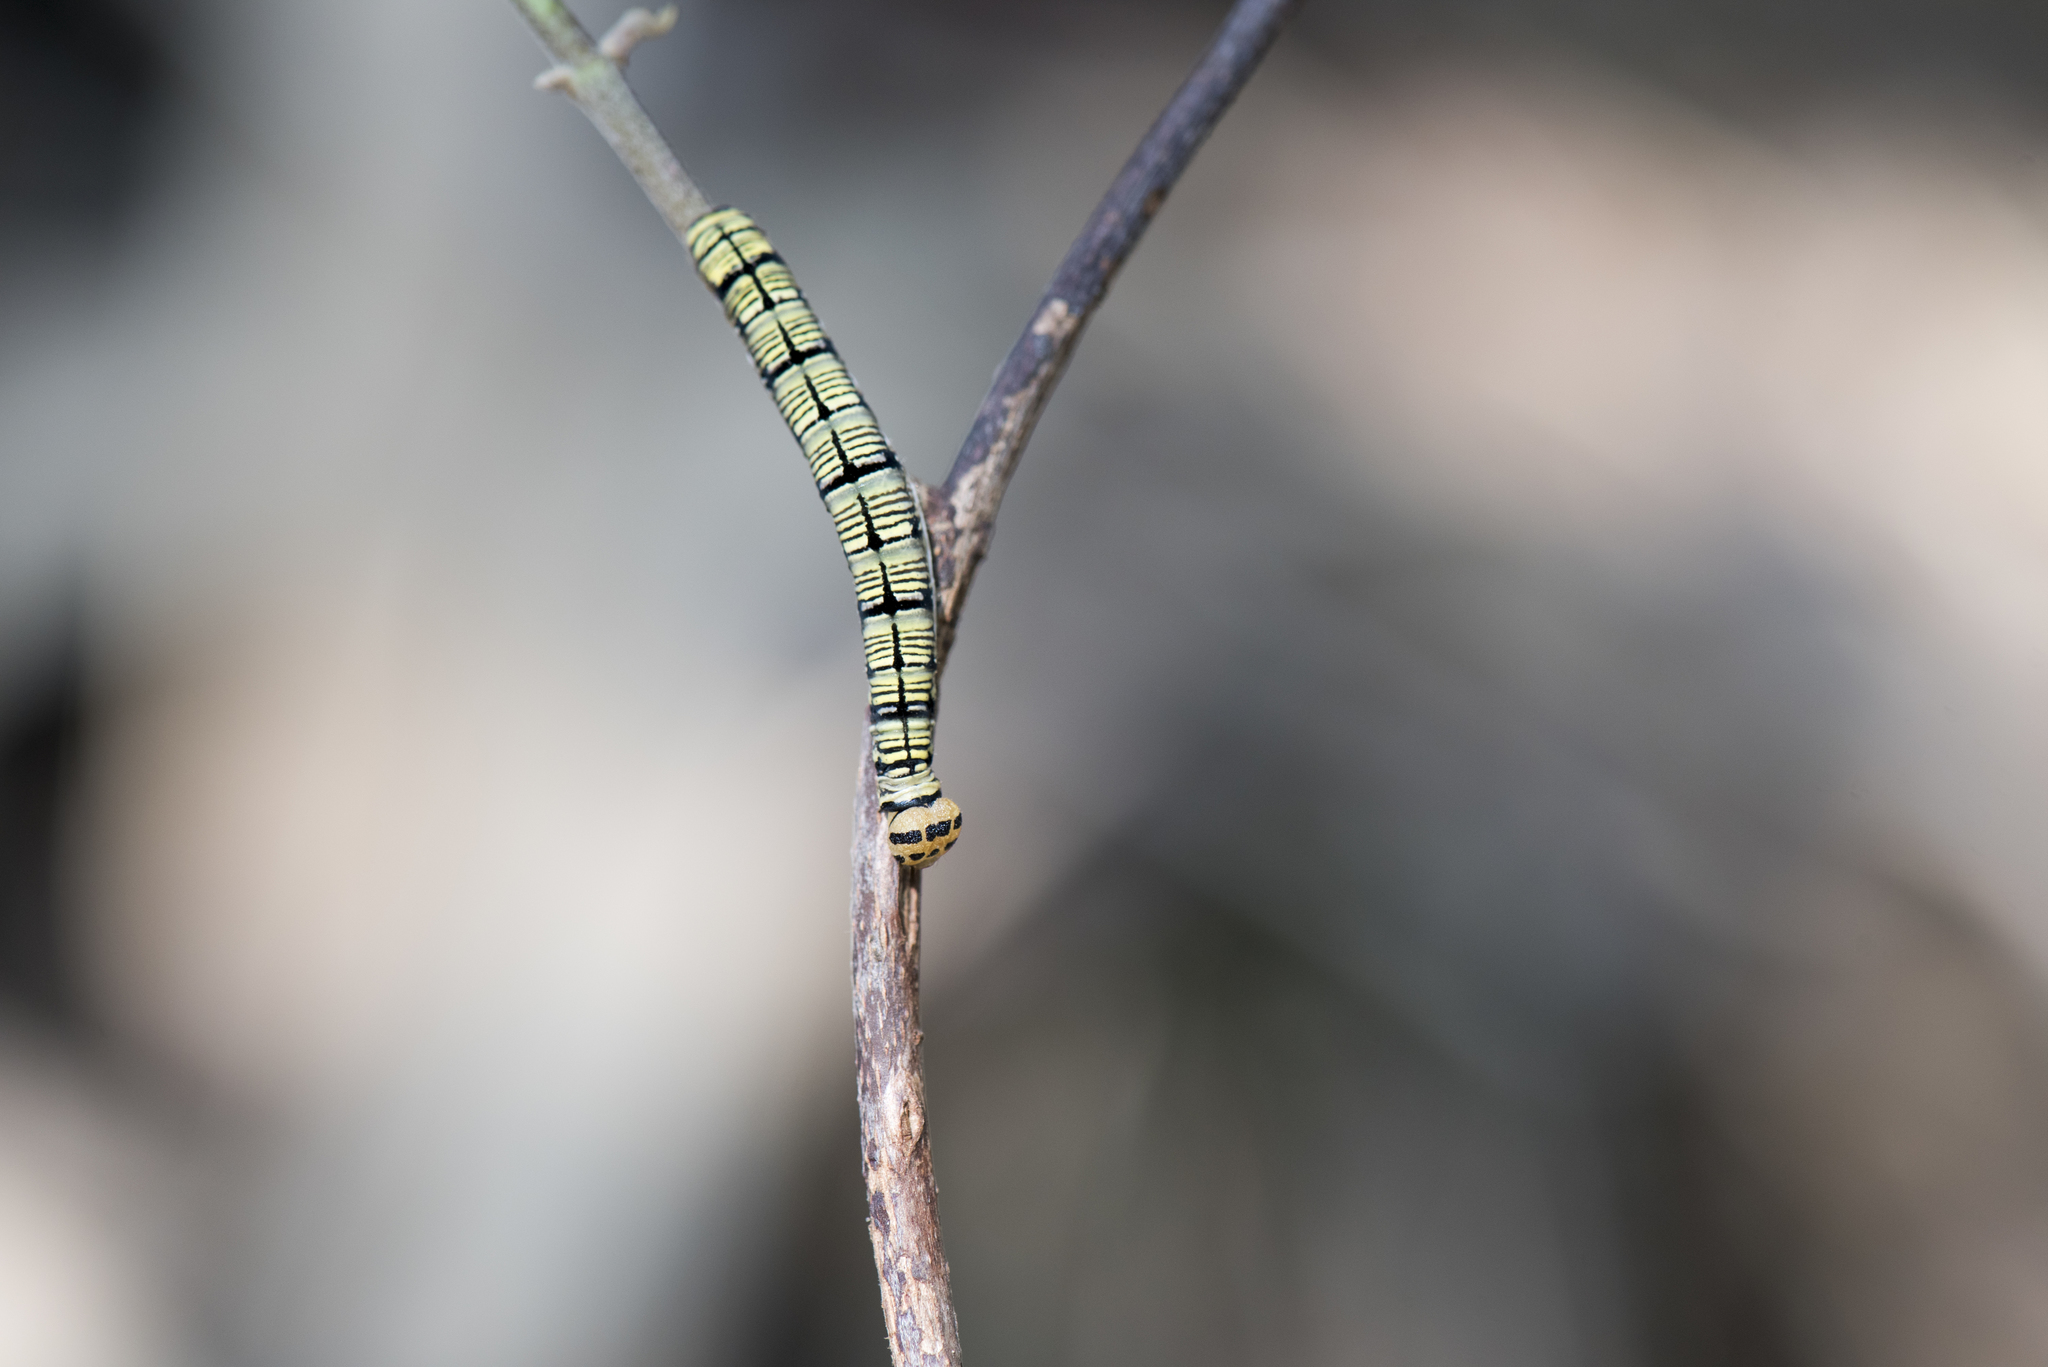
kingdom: Animalia
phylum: Arthropoda
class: Insecta
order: Lepidoptera
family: Hesperiidae
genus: Badamia
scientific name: Badamia exclamationis
